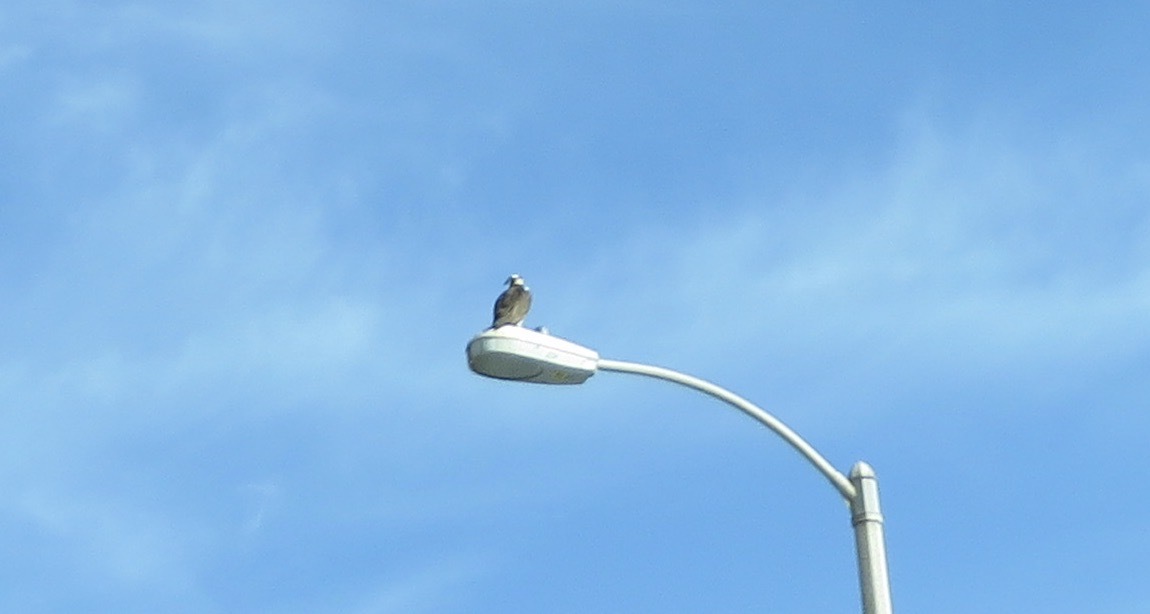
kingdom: Animalia
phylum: Chordata
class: Aves
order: Accipitriformes
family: Pandionidae
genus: Pandion
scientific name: Pandion haliaetus
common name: Osprey
